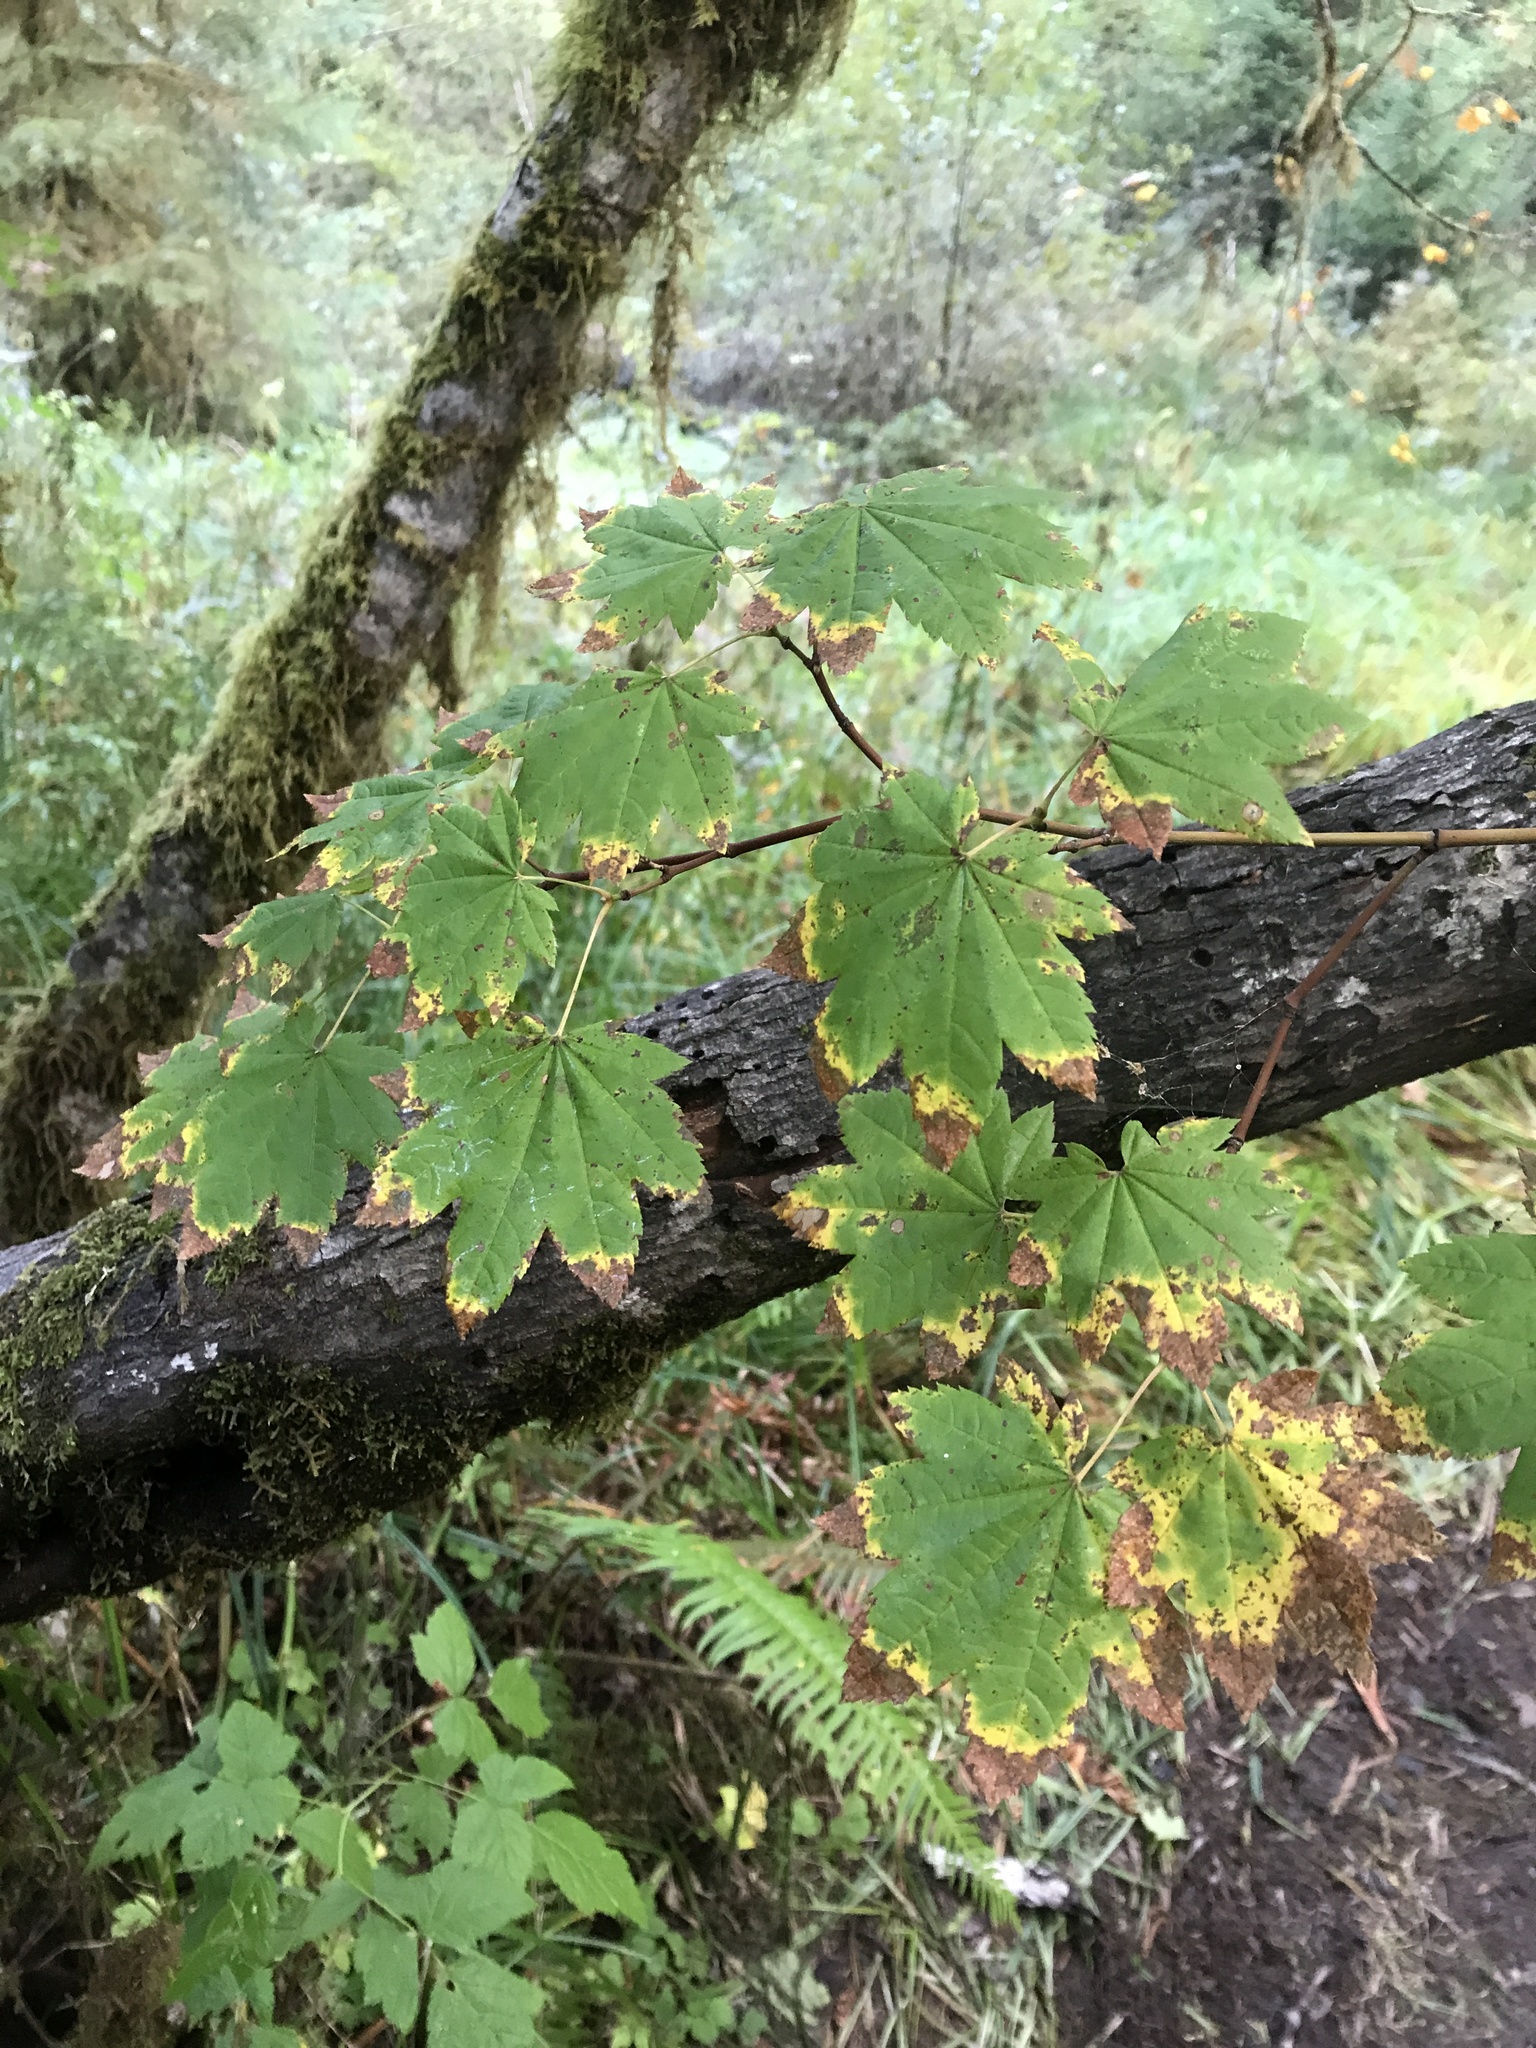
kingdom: Plantae
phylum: Tracheophyta
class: Magnoliopsida
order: Sapindales
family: Sapindaceae
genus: Acer
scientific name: Acer circinatum
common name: Vine maple
